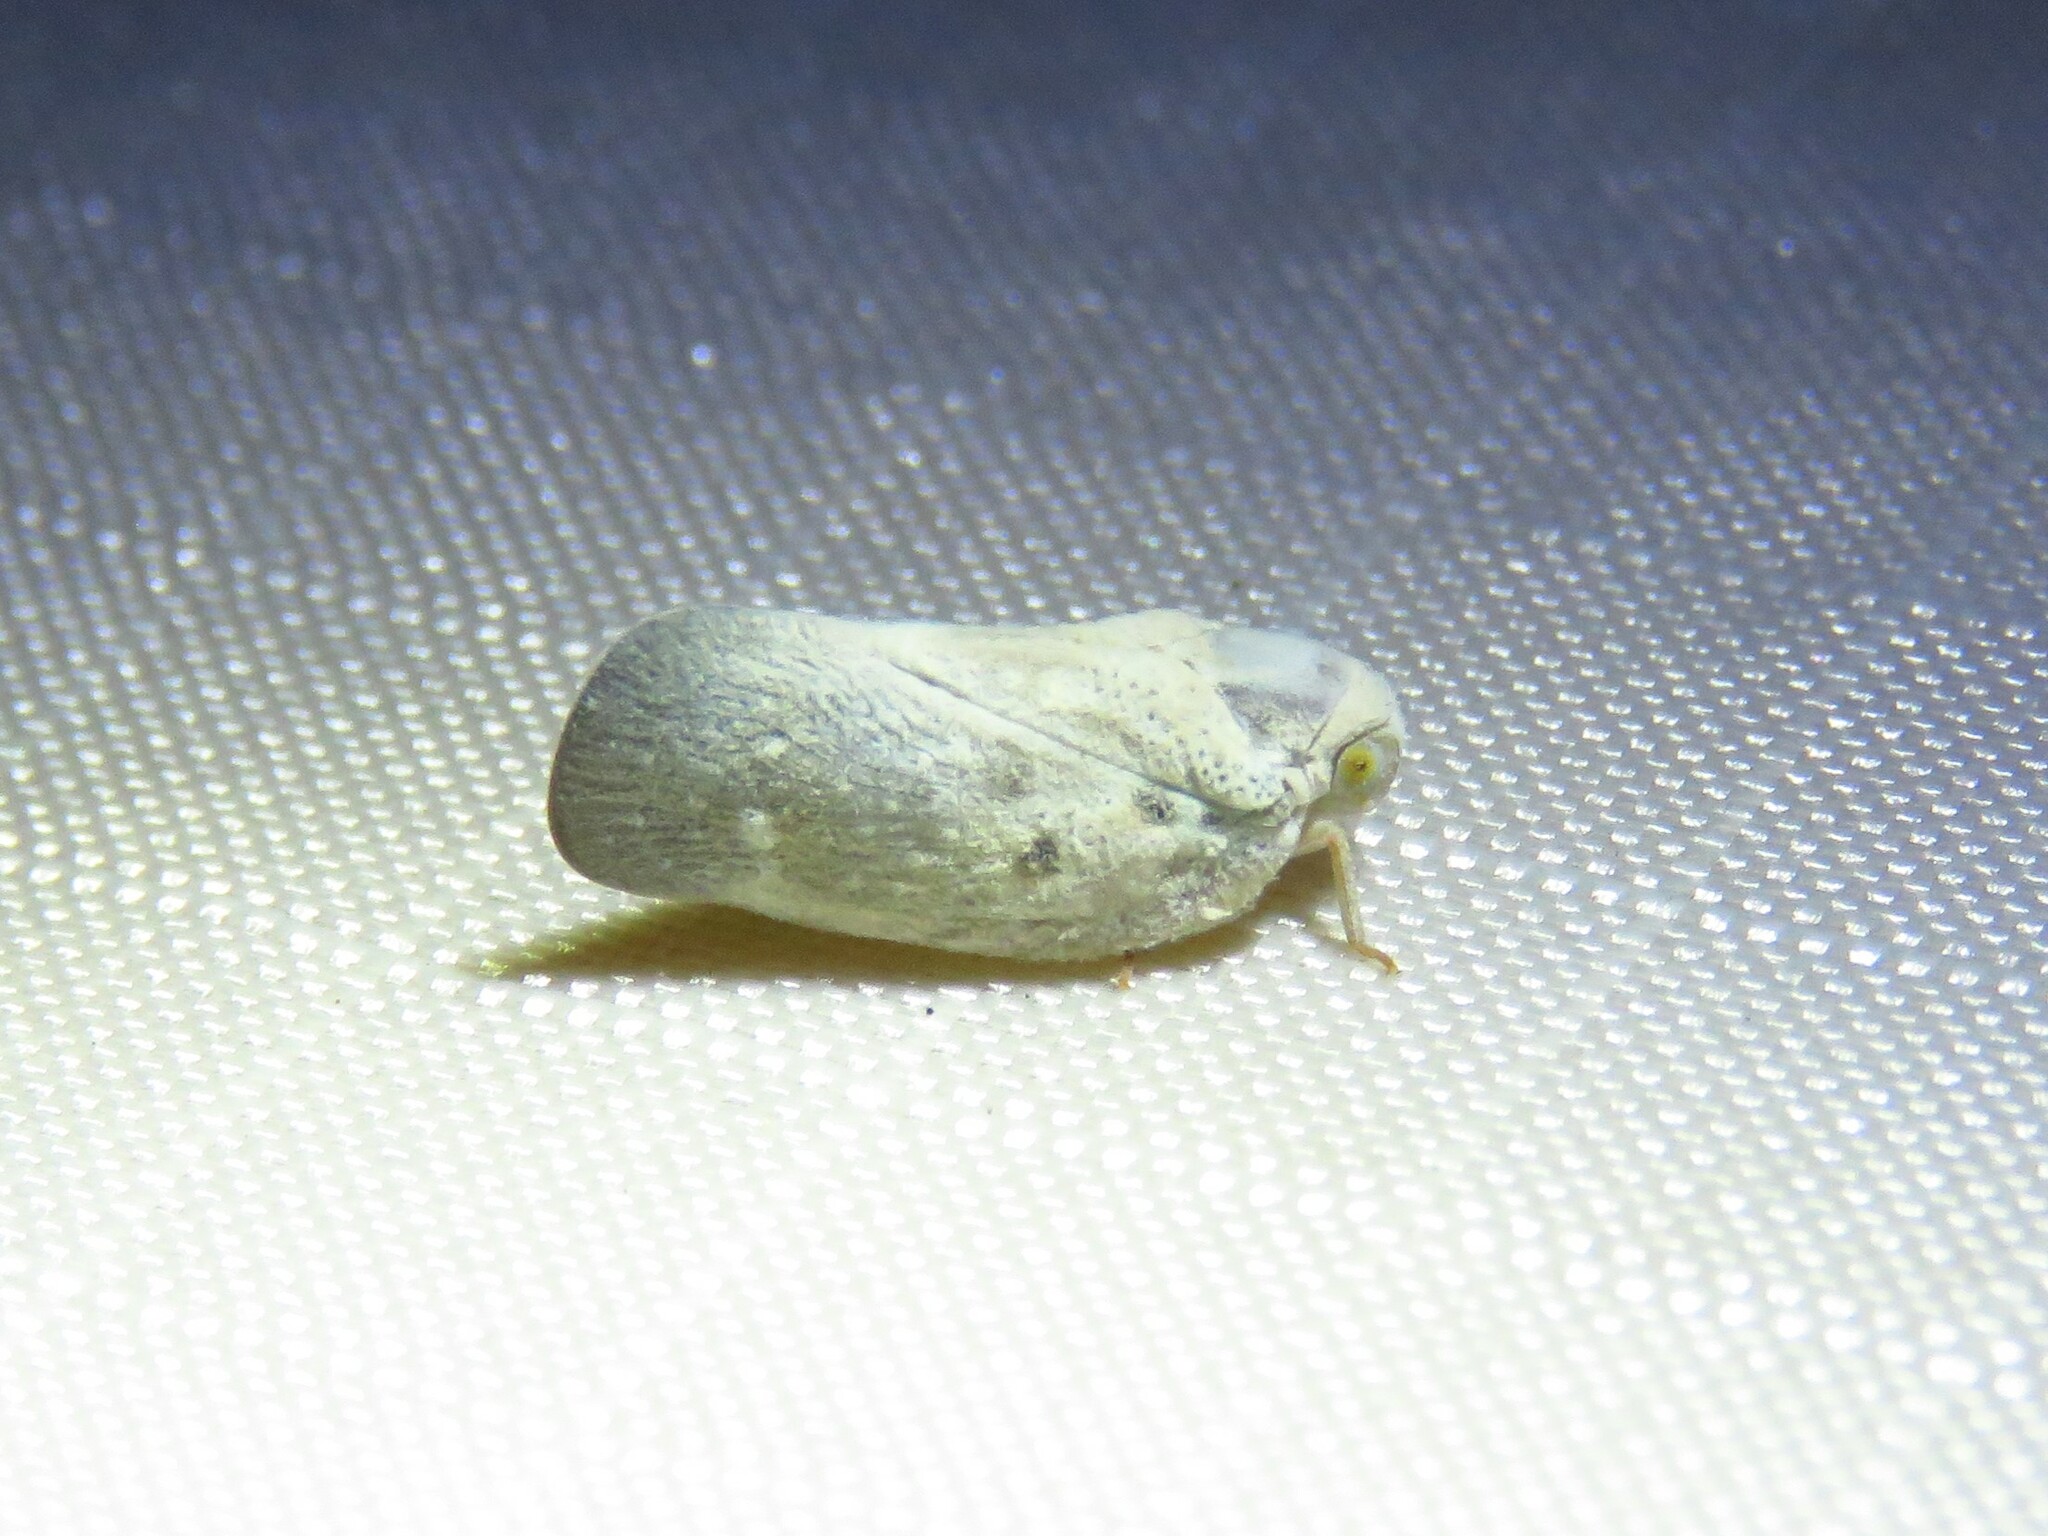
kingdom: Animalia
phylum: Arthropoda
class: Insecta
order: Hemiptera
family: Flatidae
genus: Metcalfa
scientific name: Metcalfa pruinosa
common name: Citrus flatid planthopper
